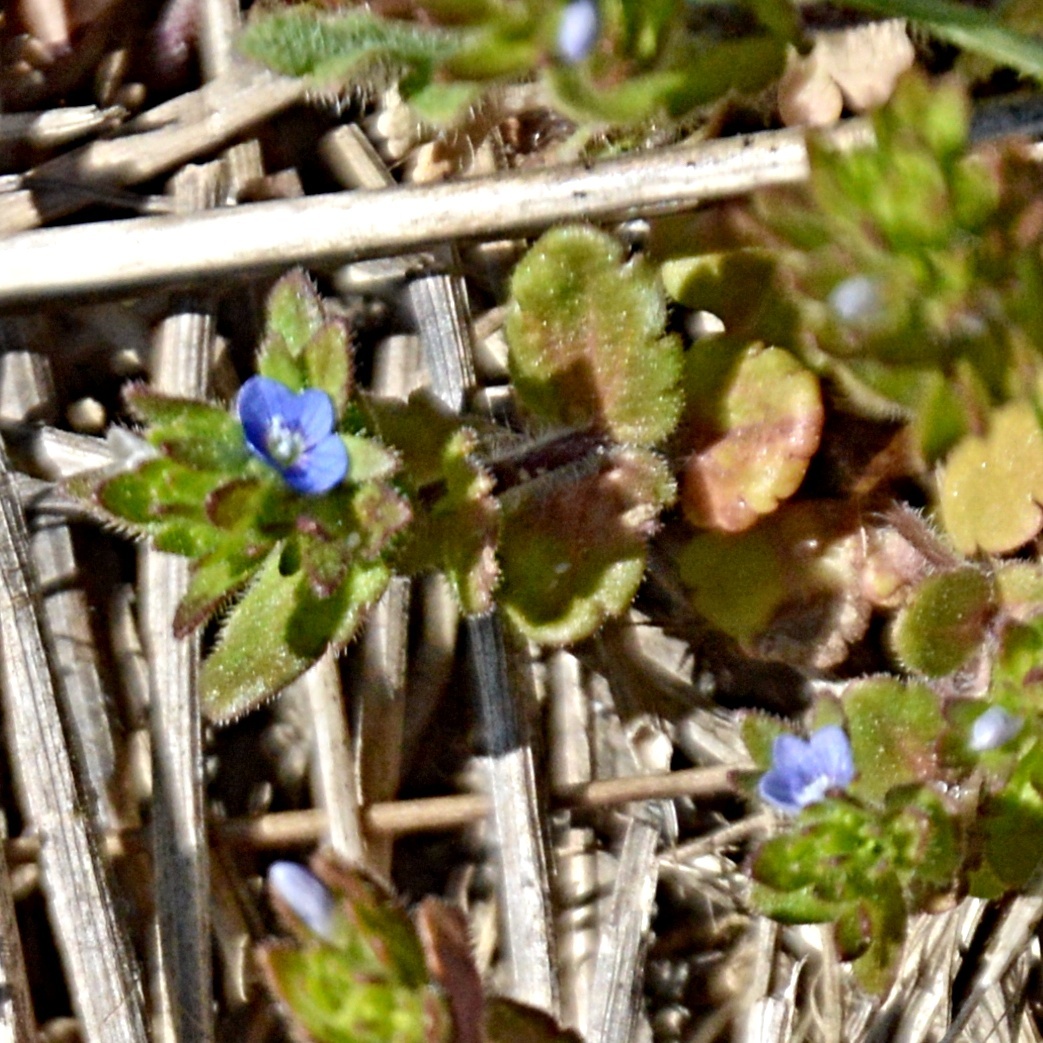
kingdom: Plantae
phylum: Tracheophyta
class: Magnoliopsida
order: Lamiales
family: Plantaginaceae
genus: Veronica
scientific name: Veronica arvensis
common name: Corn speedwell
